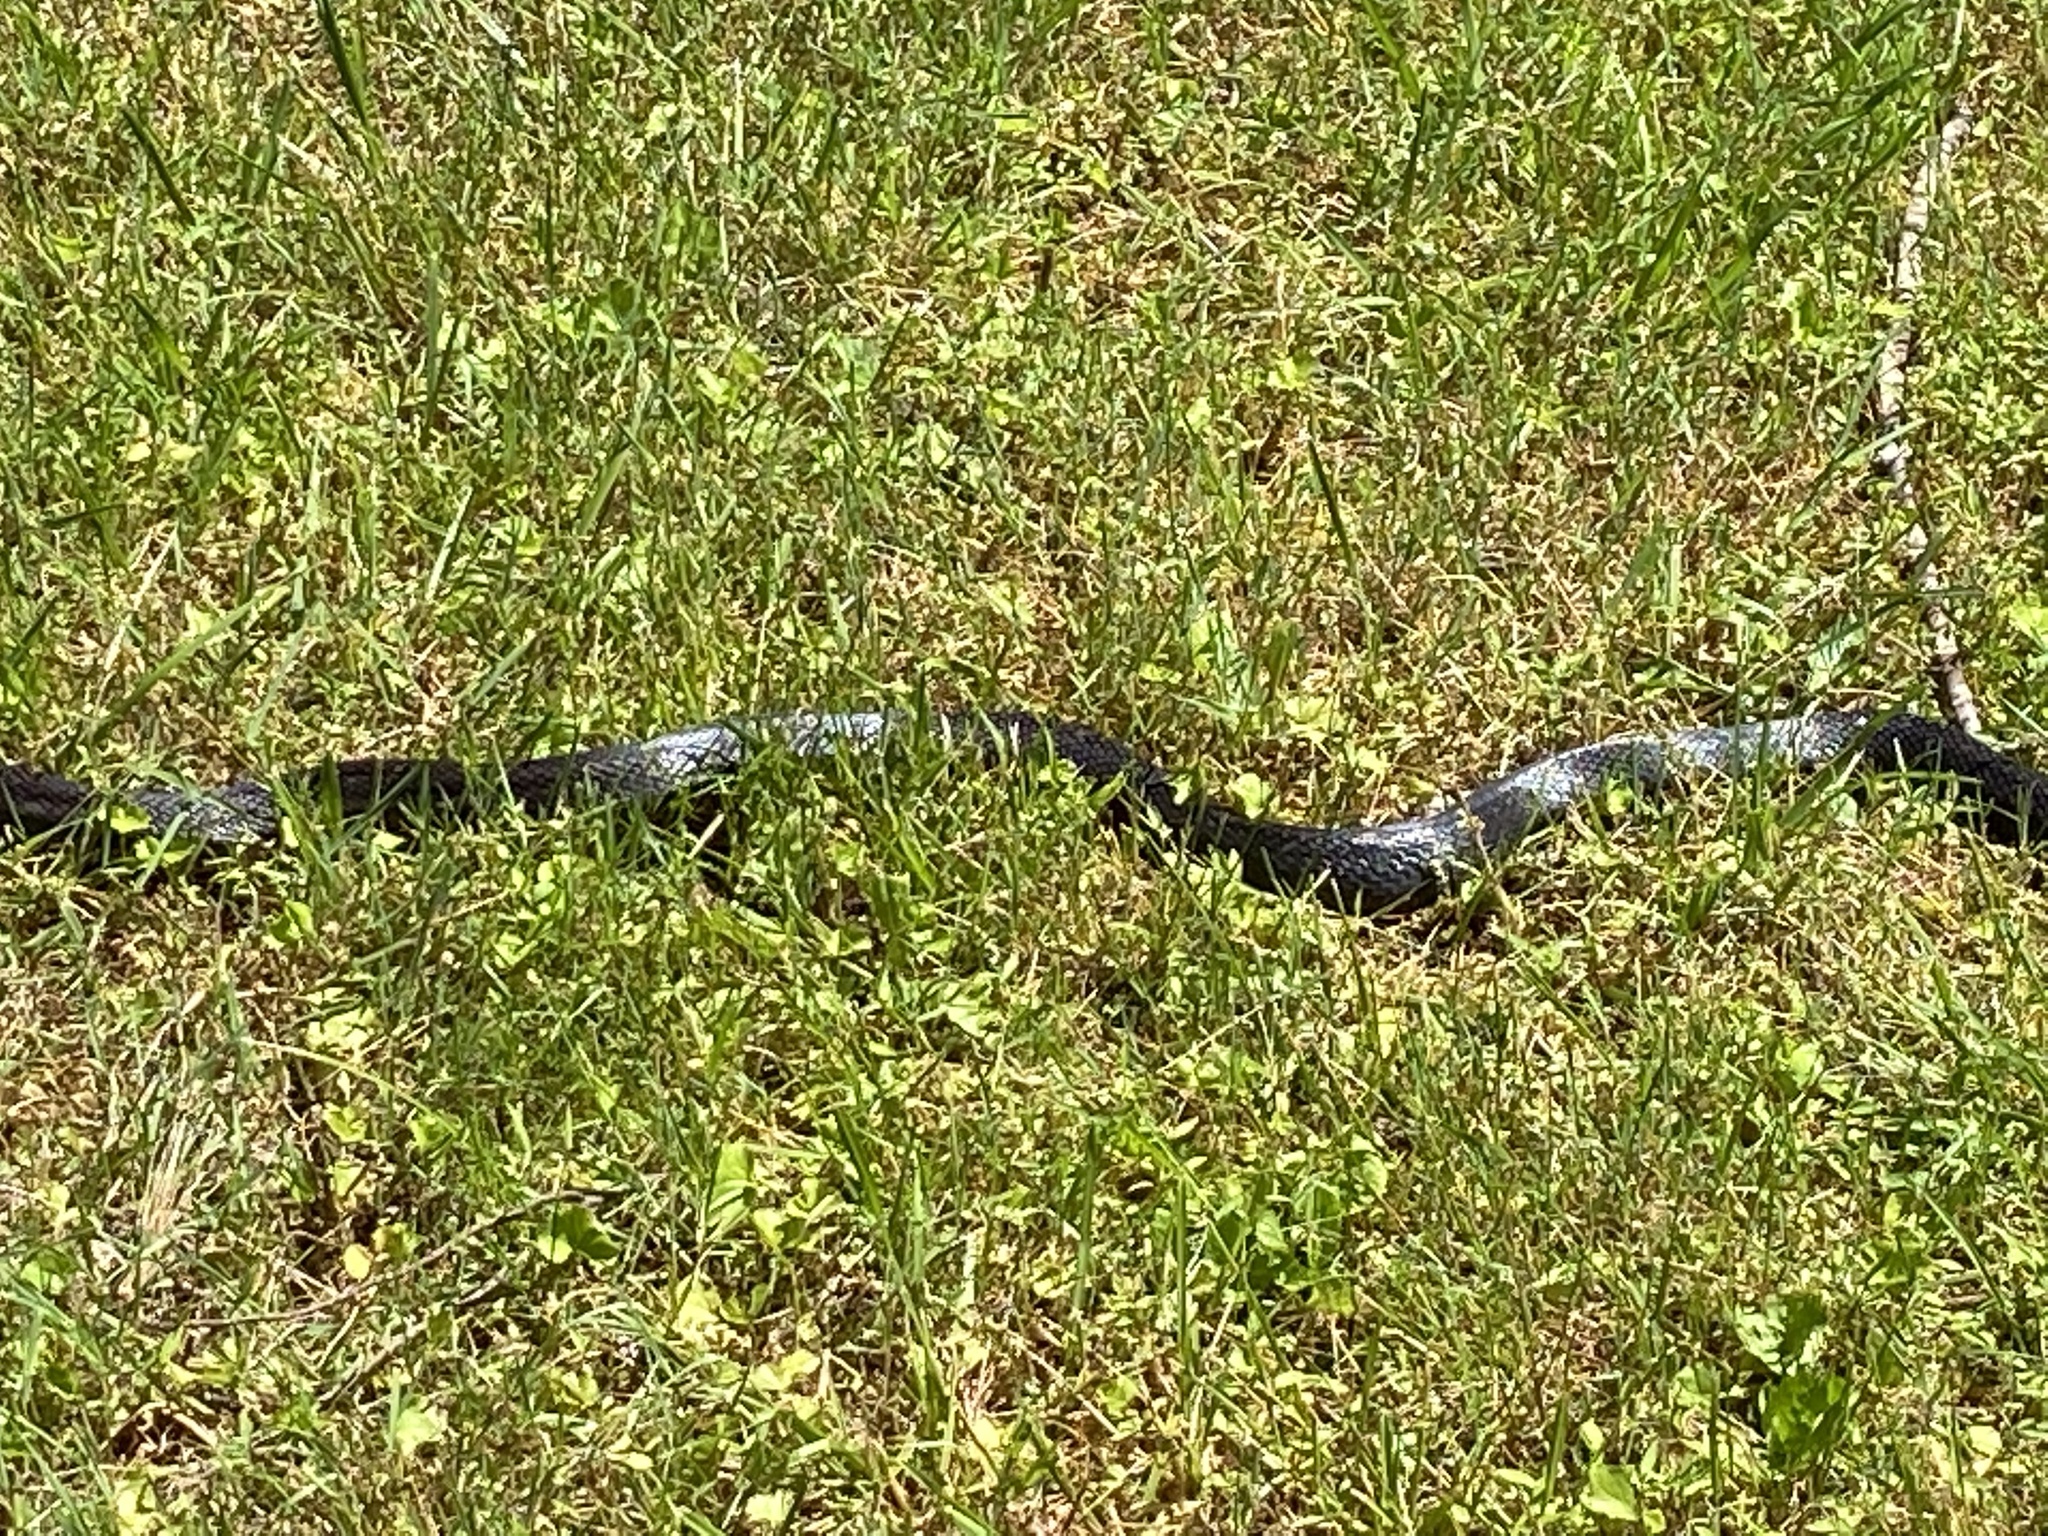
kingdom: Animalia
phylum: Chordata
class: Squamata
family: Colubridae
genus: Pantherophis
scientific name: Pantherophis spiloides
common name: Gray rat snake
